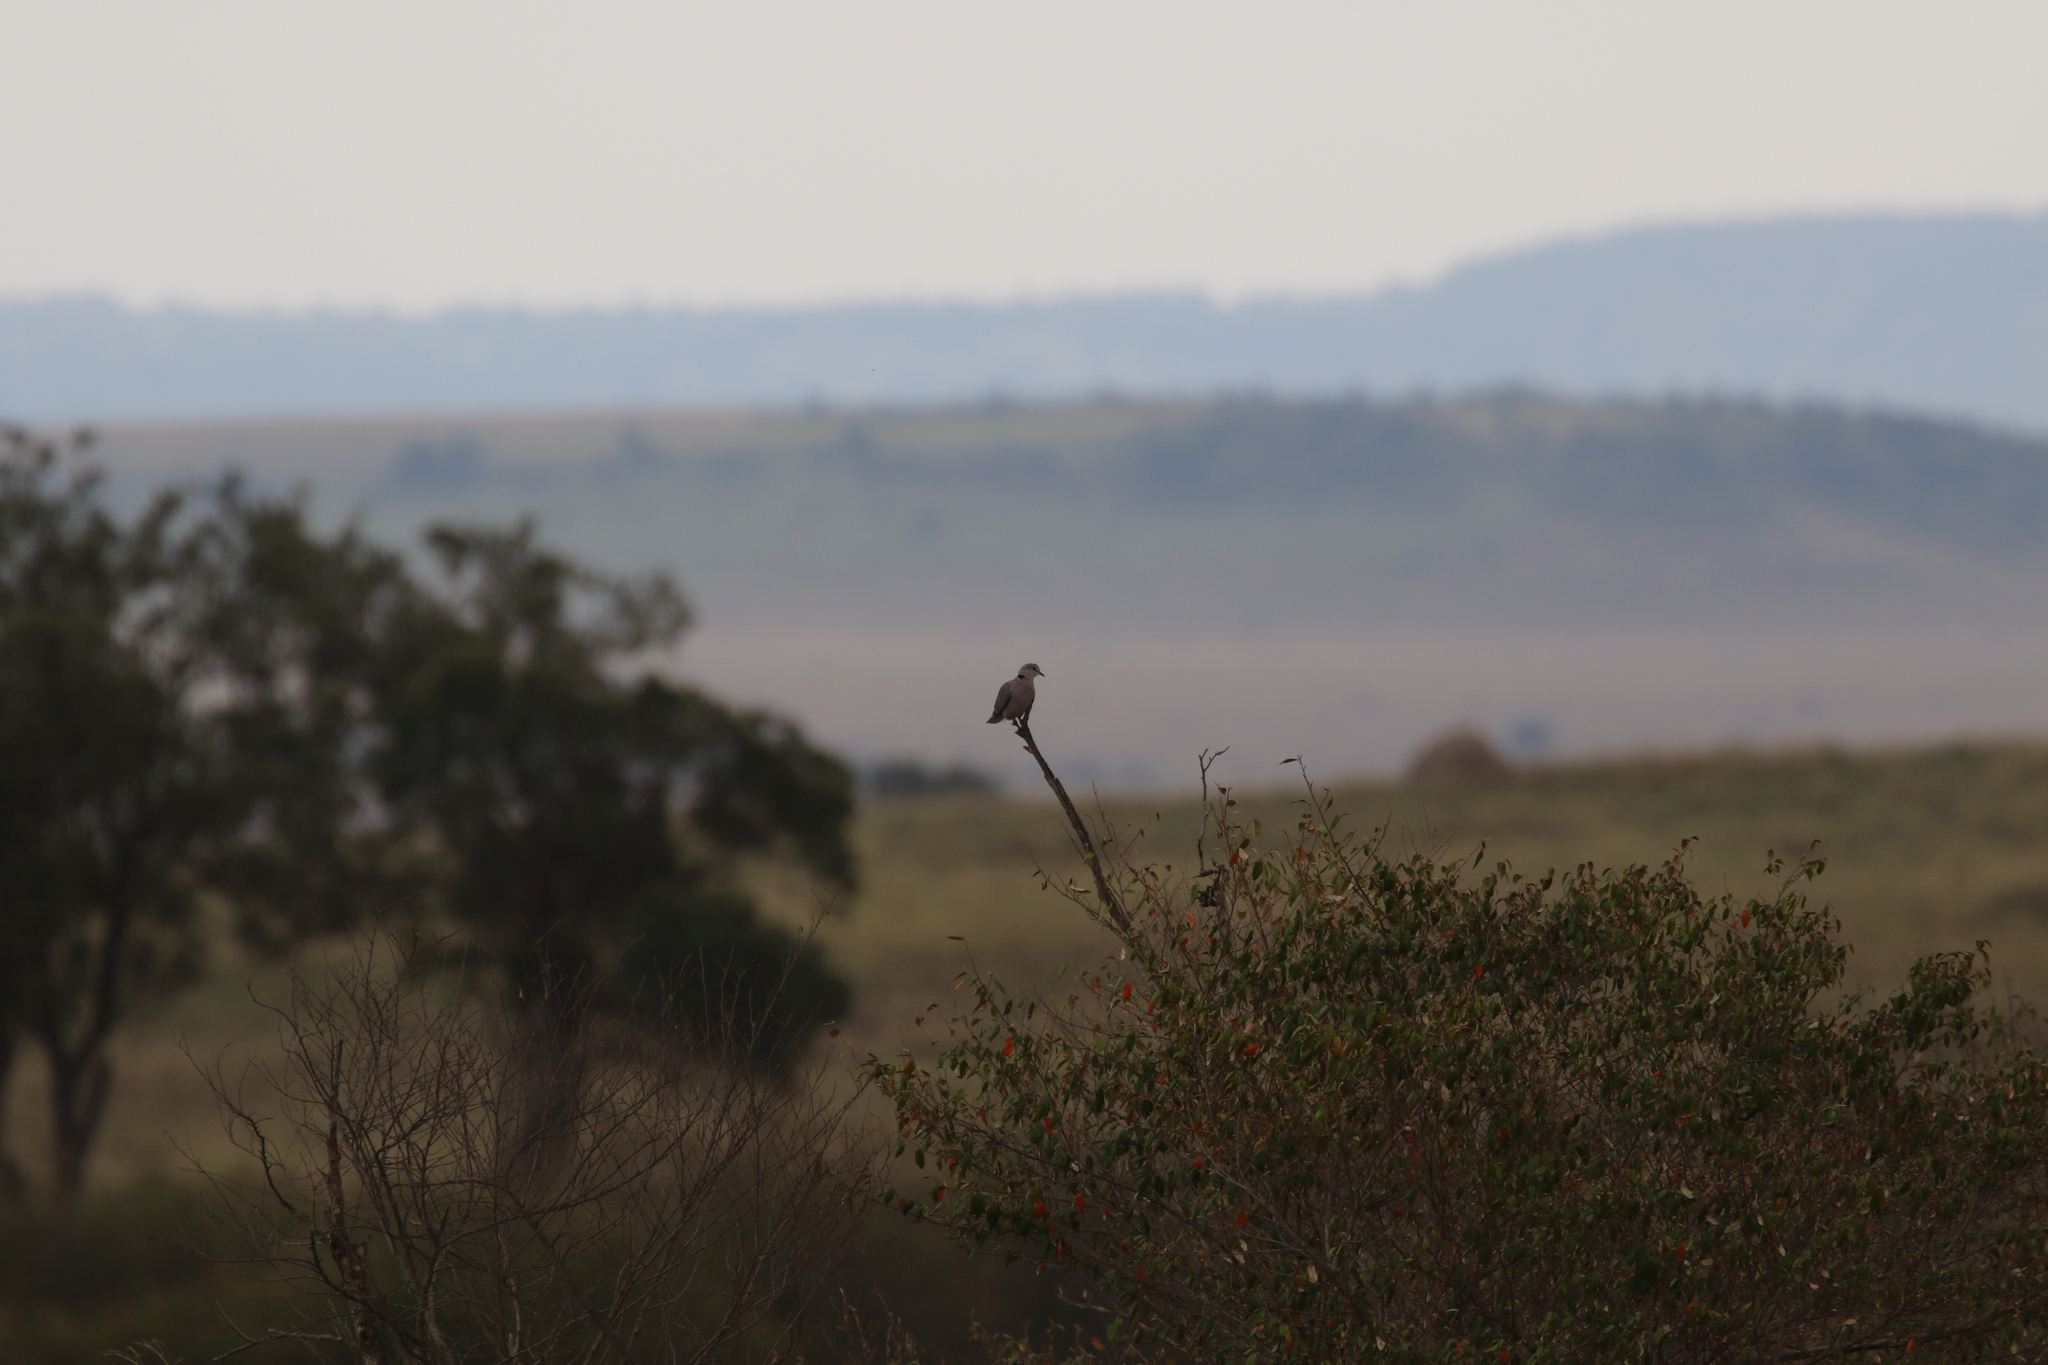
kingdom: Animalia
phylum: Chordata
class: Aves
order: Columbiformes
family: Columbidae
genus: Streptopelia
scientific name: Streptopelia capicola
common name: Ring-necked dove
